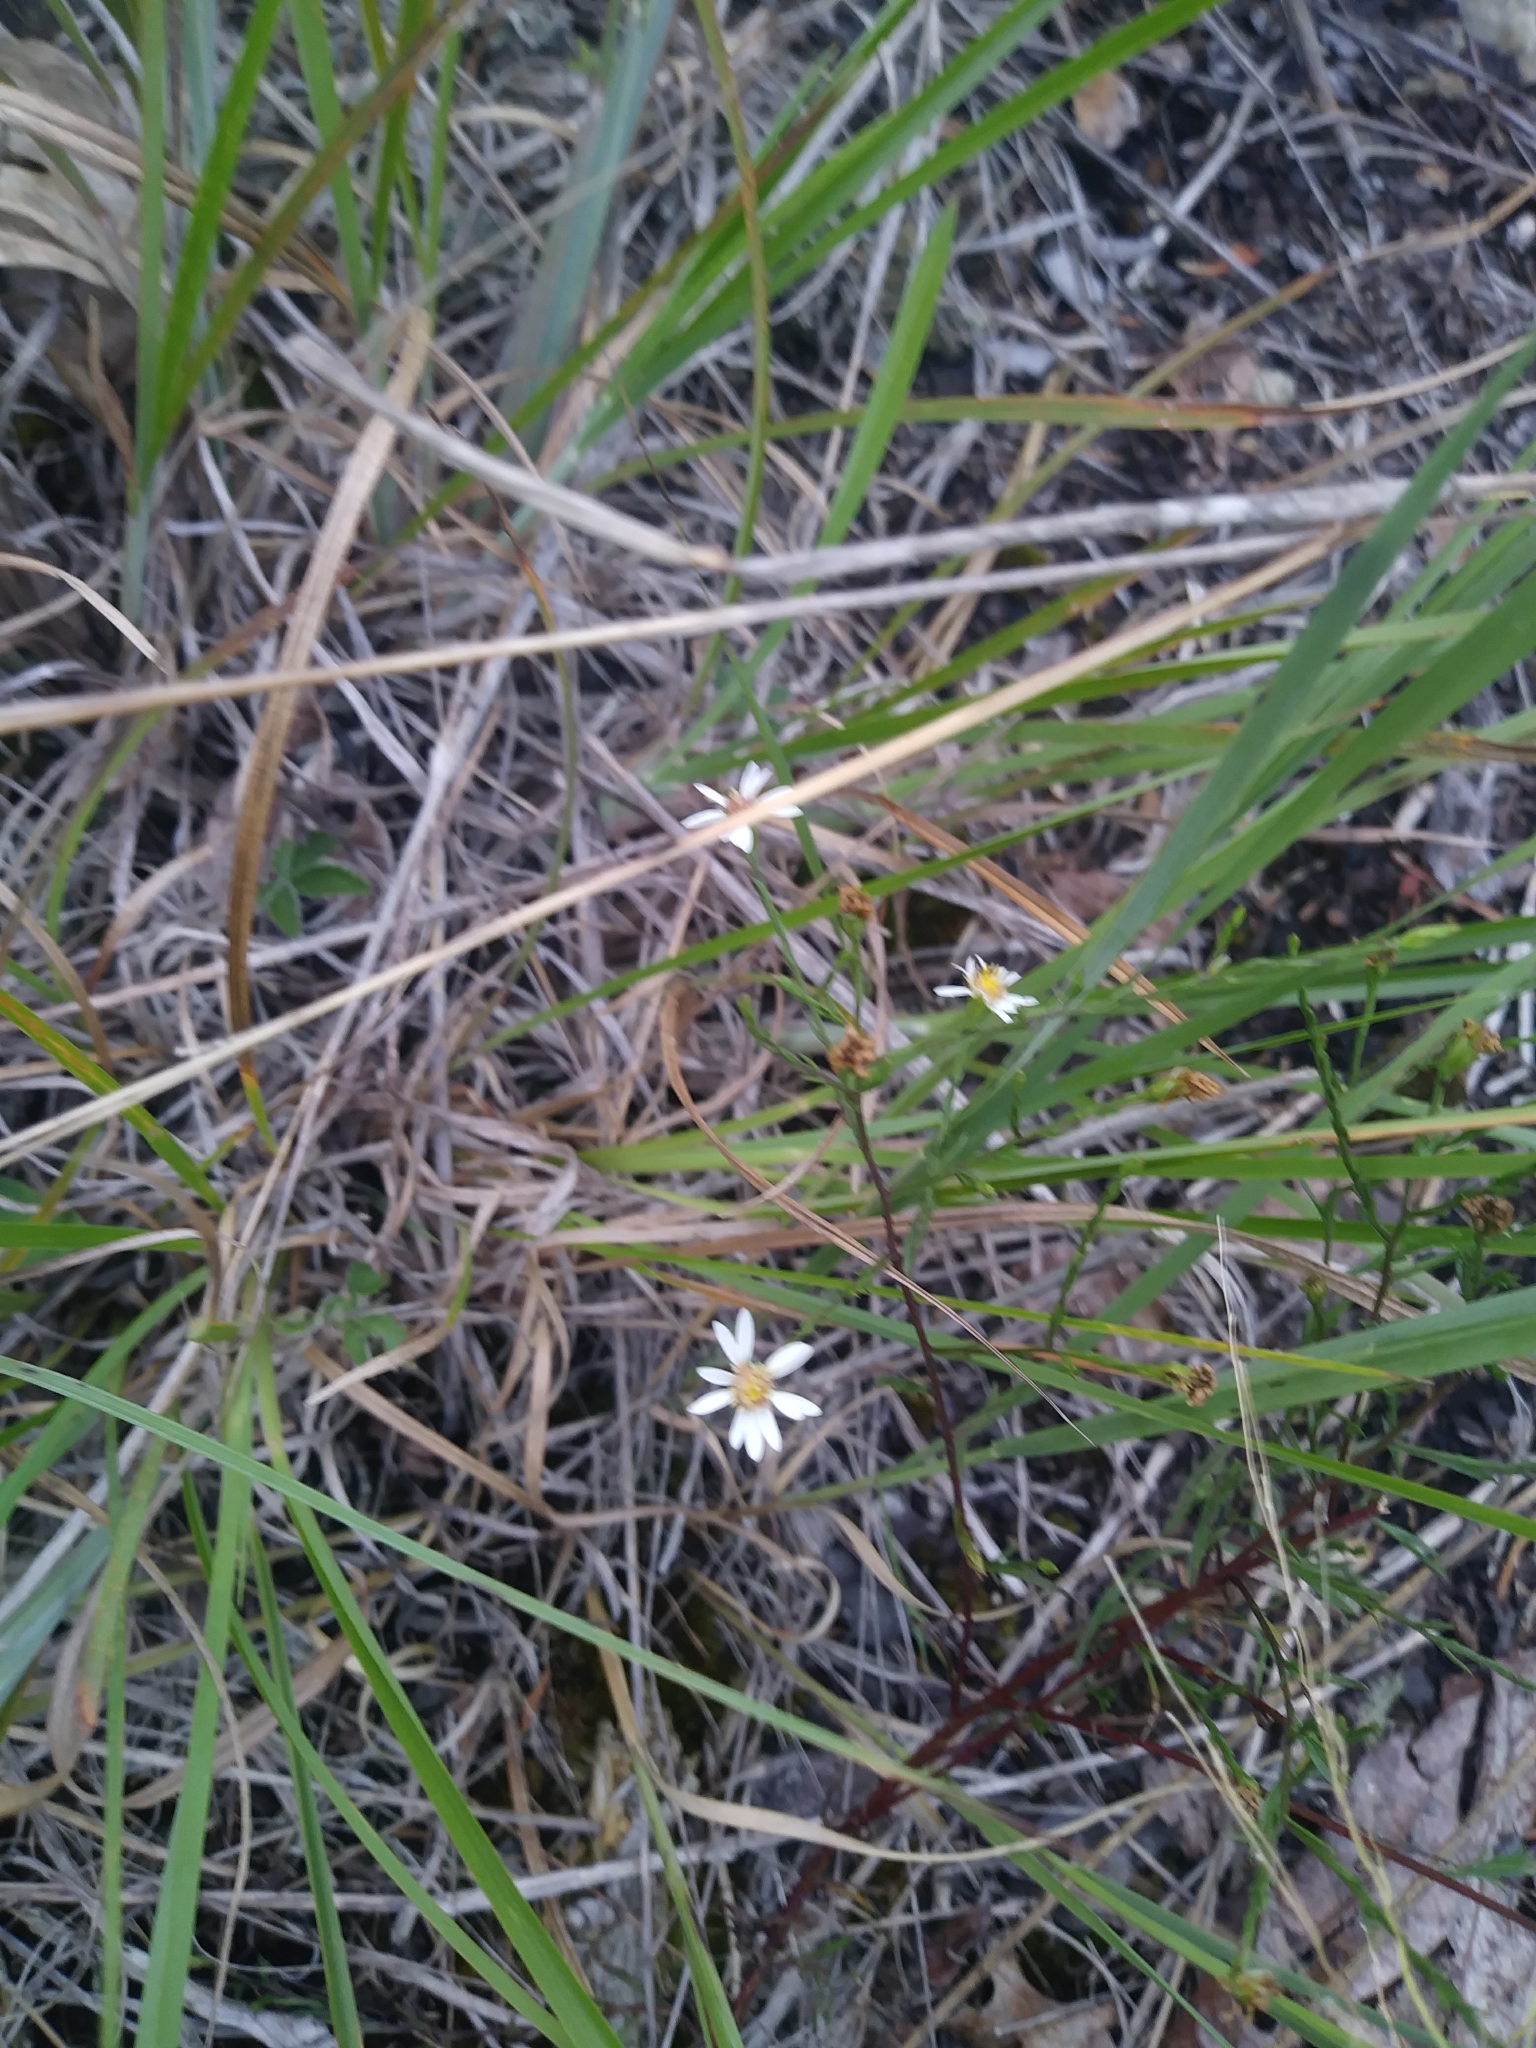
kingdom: Plantae
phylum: Tracheophyta
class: Magnoliopsida
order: Asterales
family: Asteraceae
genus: Symphyotrichum
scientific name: Symphyotrichum depauperatum
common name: Serpentine aster
